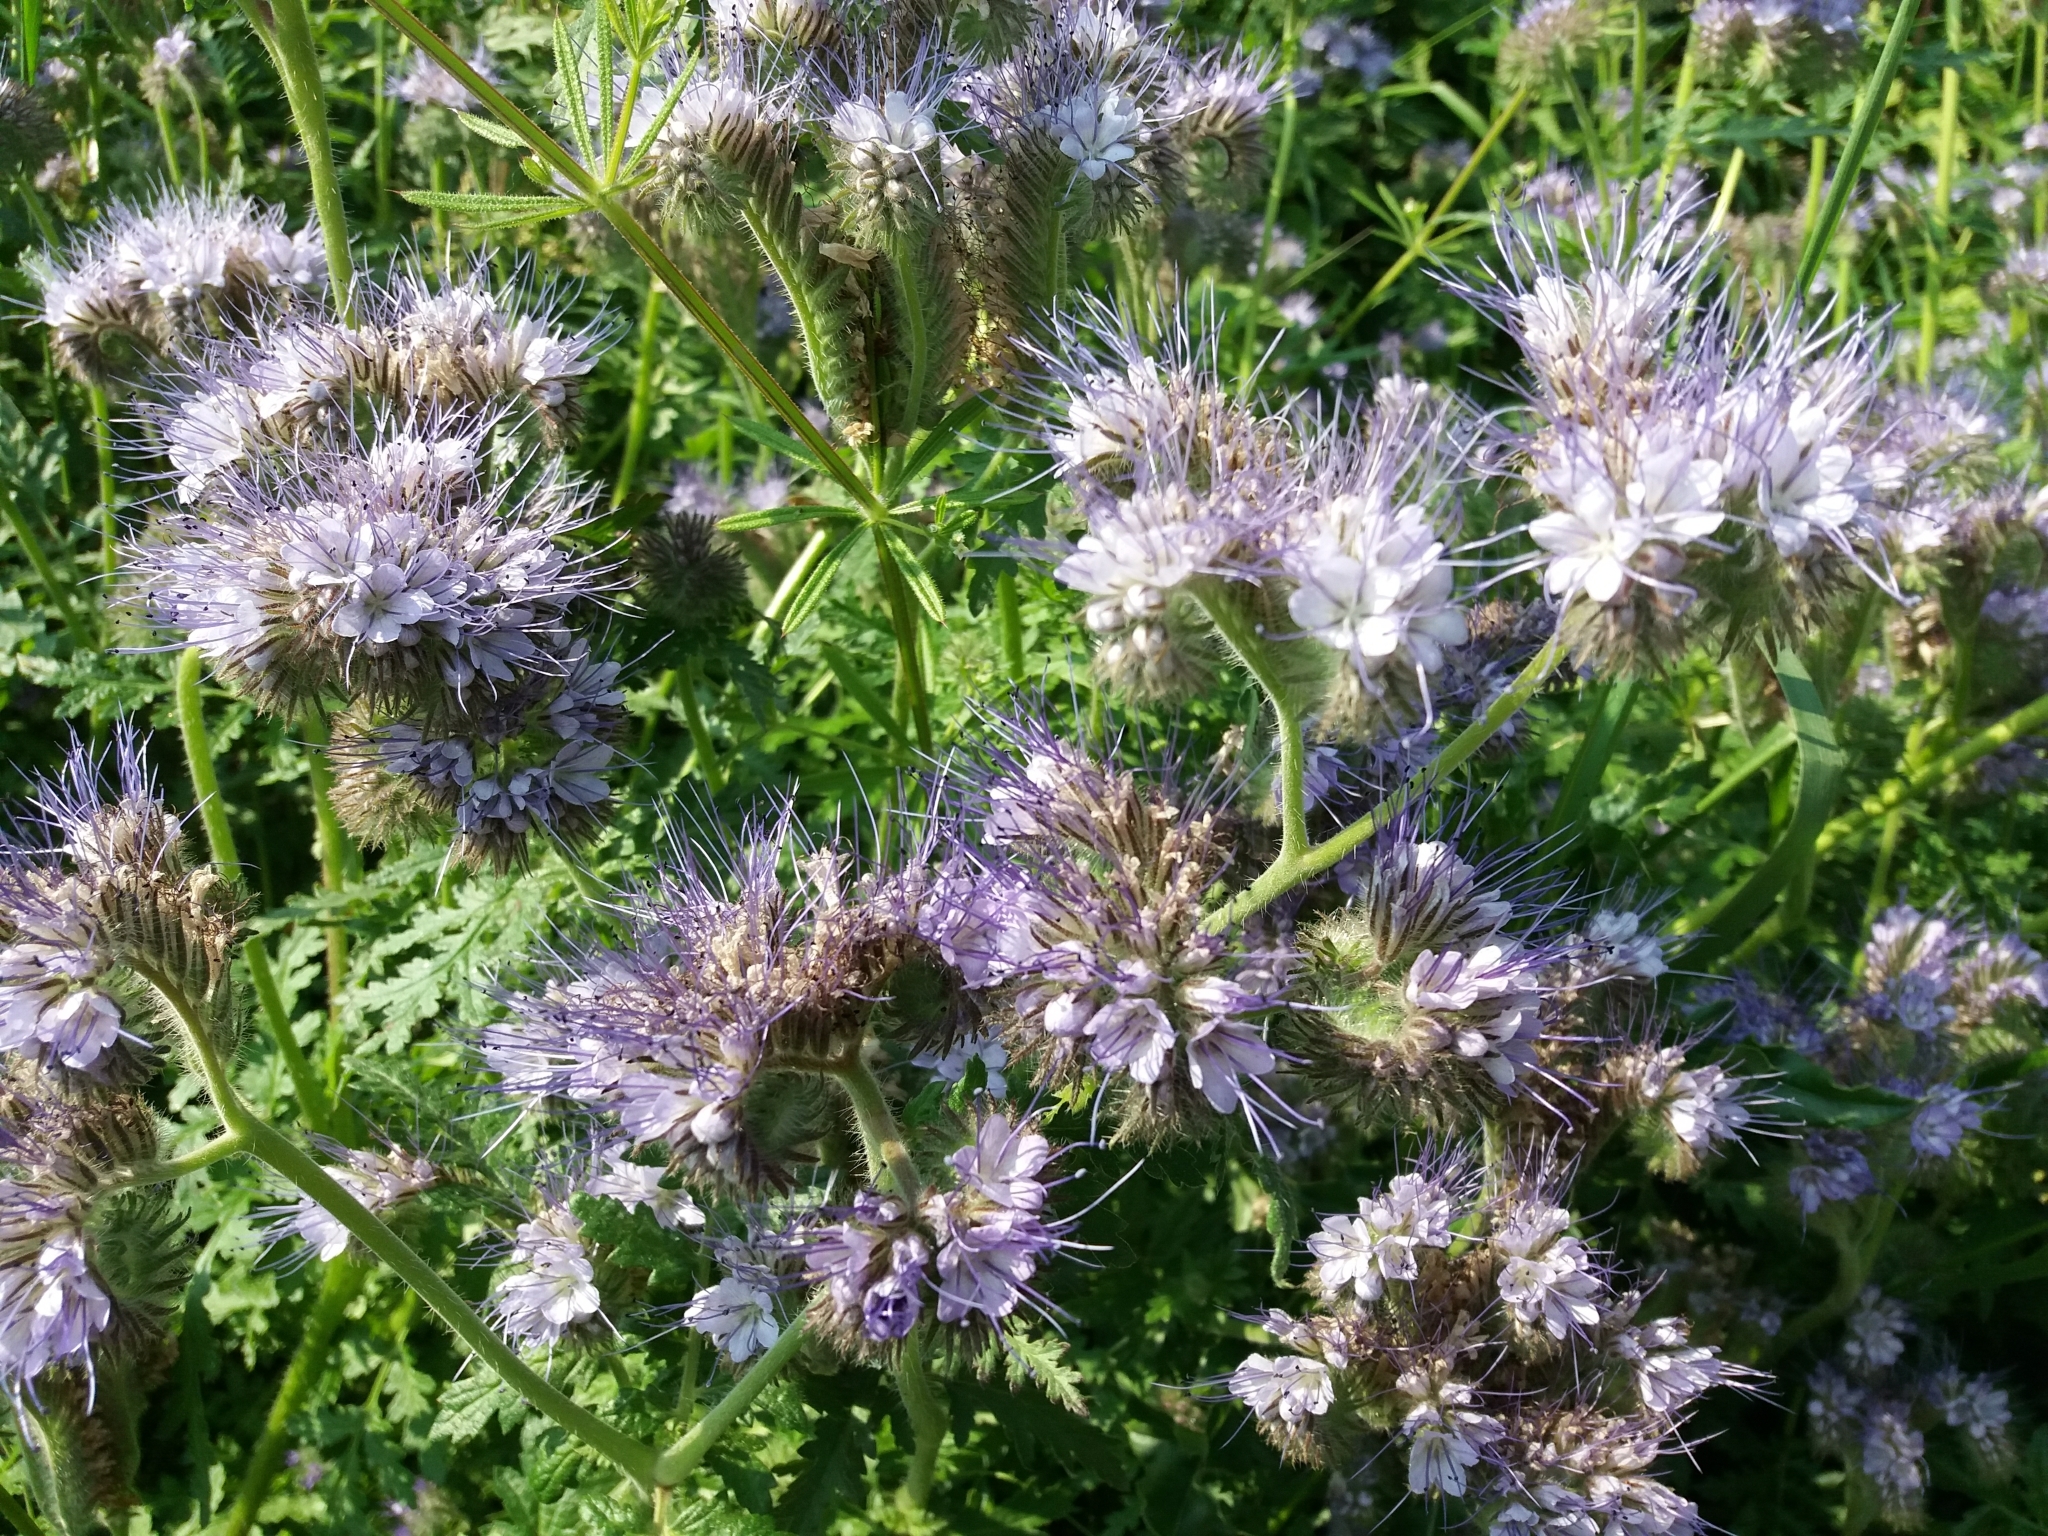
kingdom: Plantae
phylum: Tracheophyta
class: Magnoliopsida
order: Boraginales
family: Hydrophyllaceae
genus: Phacelia
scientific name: Phacelia tanacetifolia
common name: Phacelia
